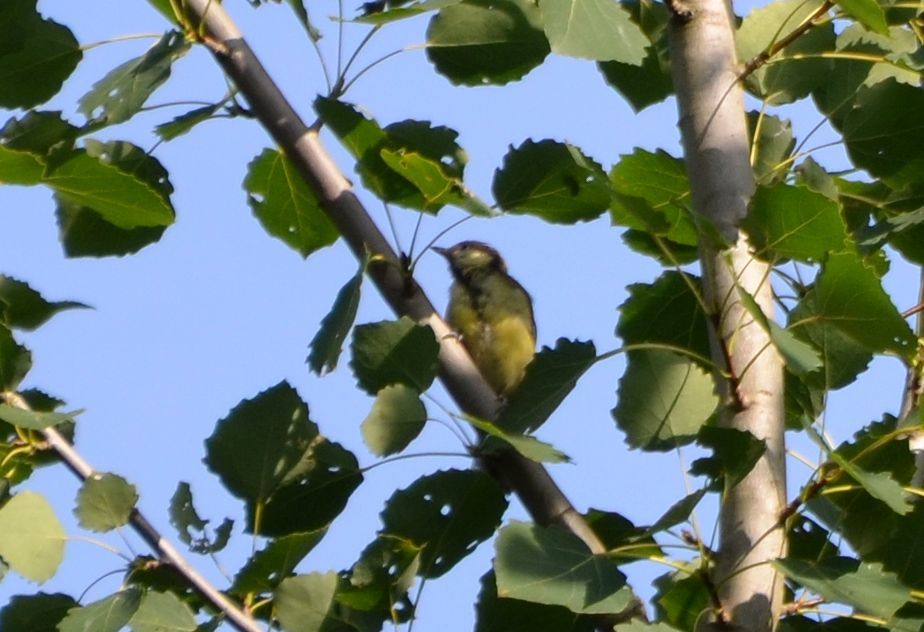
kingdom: Animalia
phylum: Chordata
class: Aves
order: Passeriformes
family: Paridae
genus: Parus
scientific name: Parus major
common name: Great tit
